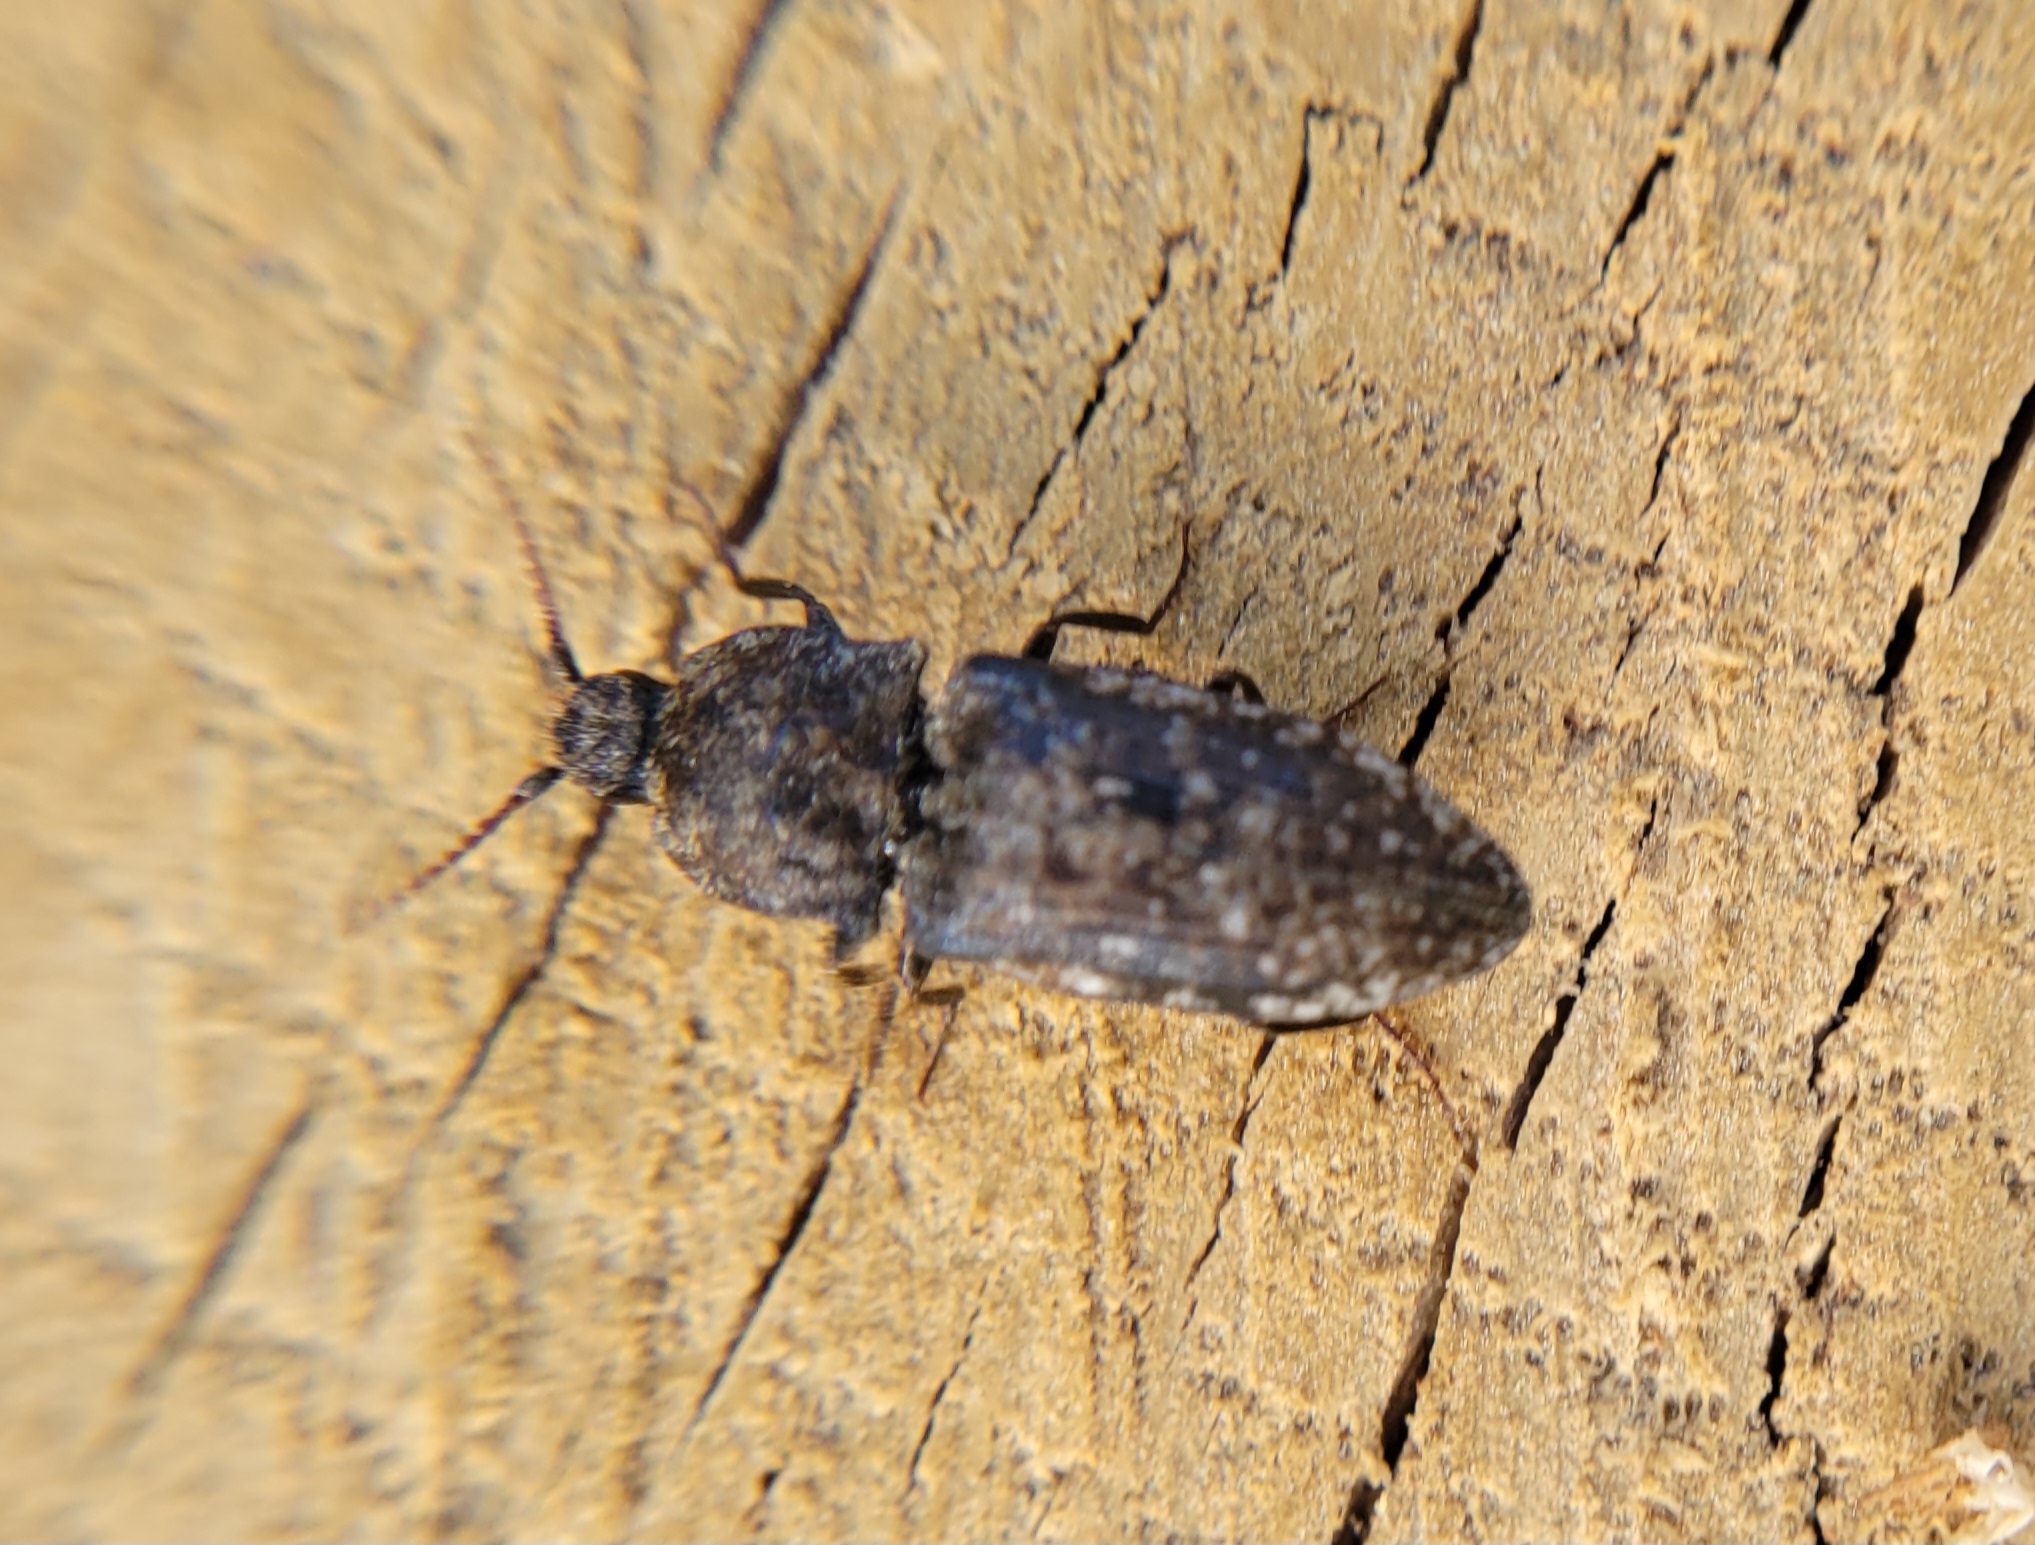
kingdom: Animalia
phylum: Arthropoda
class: Insecta
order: Coleoptera
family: Elateridae
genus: Agrypnus
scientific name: Agrypnus murinus
